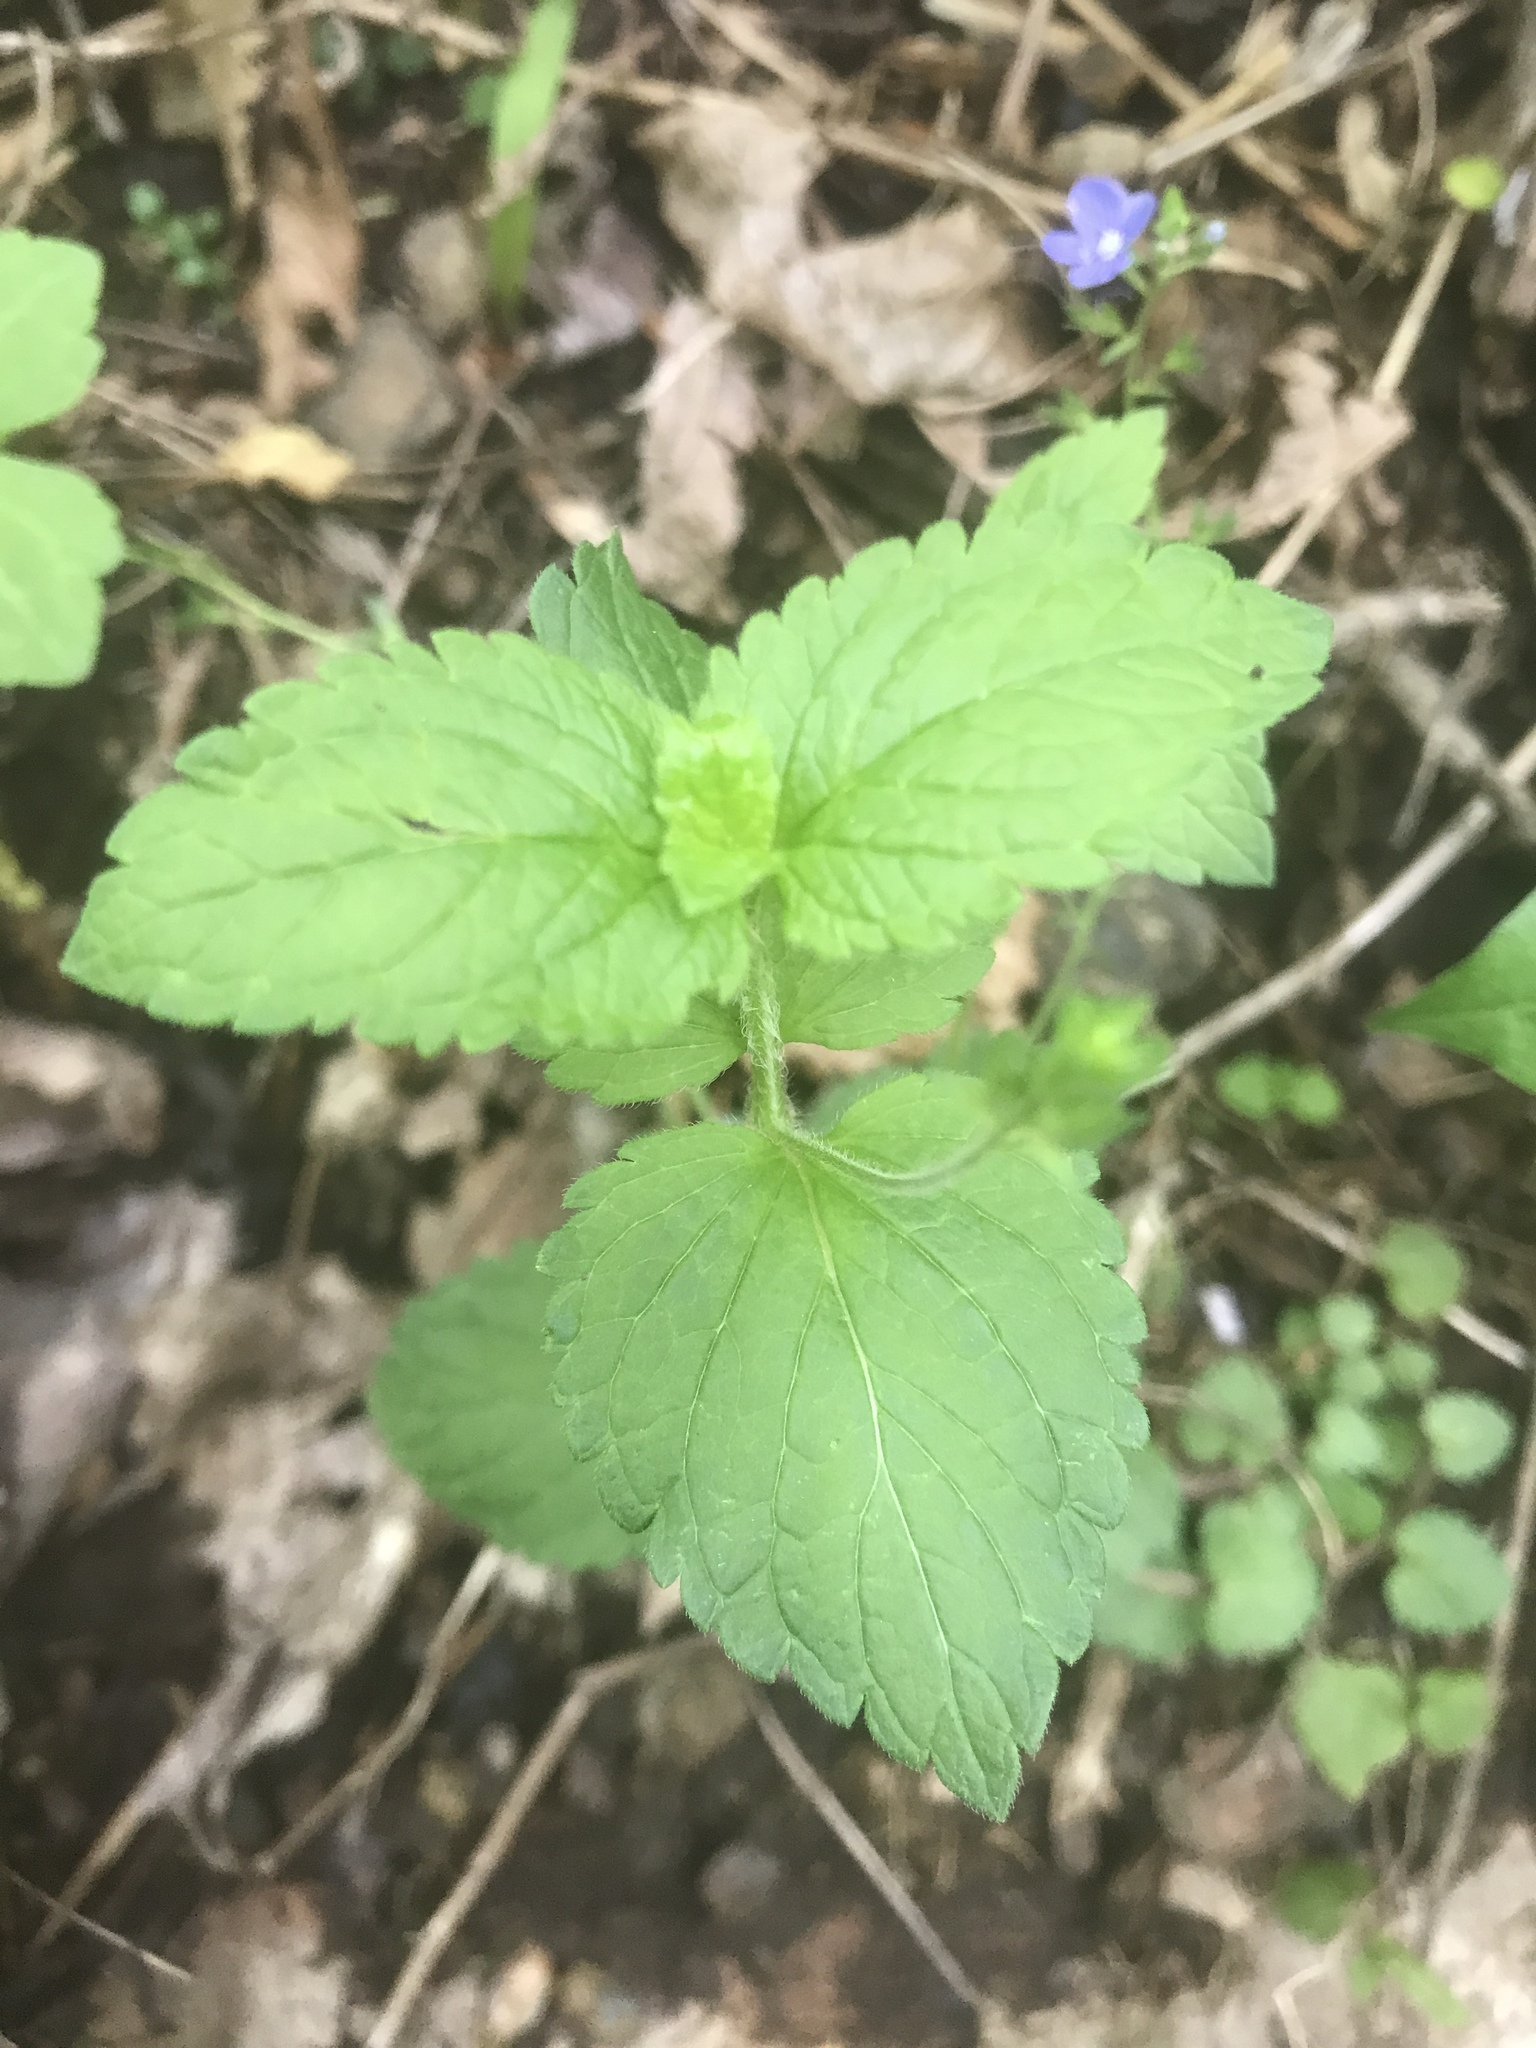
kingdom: Plantae
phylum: Tracheophyta
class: Magnoliopsida
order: Lamiales
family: Plantaginaceae
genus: Veronica
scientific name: Veronica chamaedrys
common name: Germander speedwell
